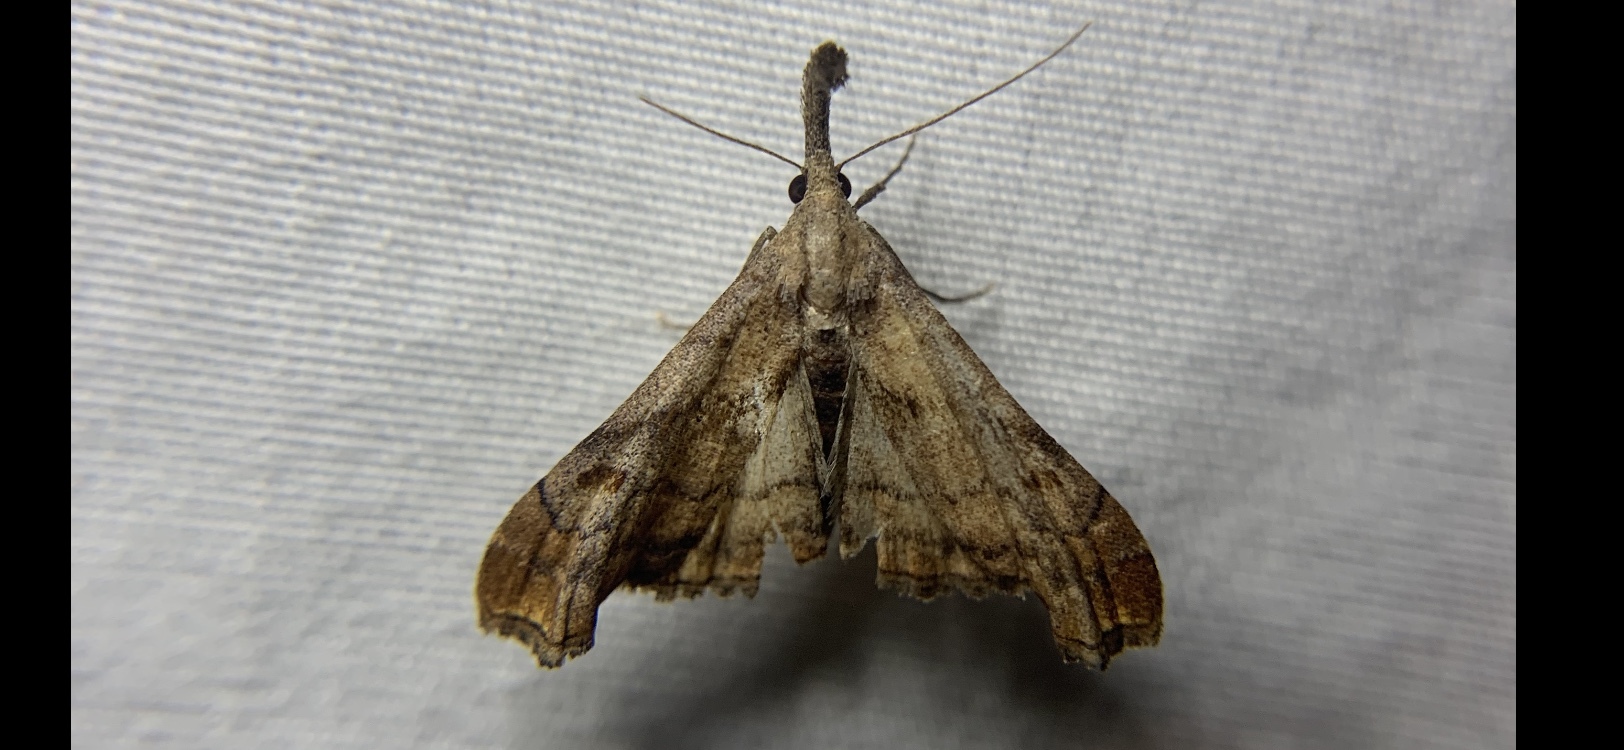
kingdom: Animalia
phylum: Arthropoda
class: Insecta
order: Lepidoptera
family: Erebidae
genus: Palthis
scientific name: Palthis angulalis
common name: Dark-spotted palthis moth
